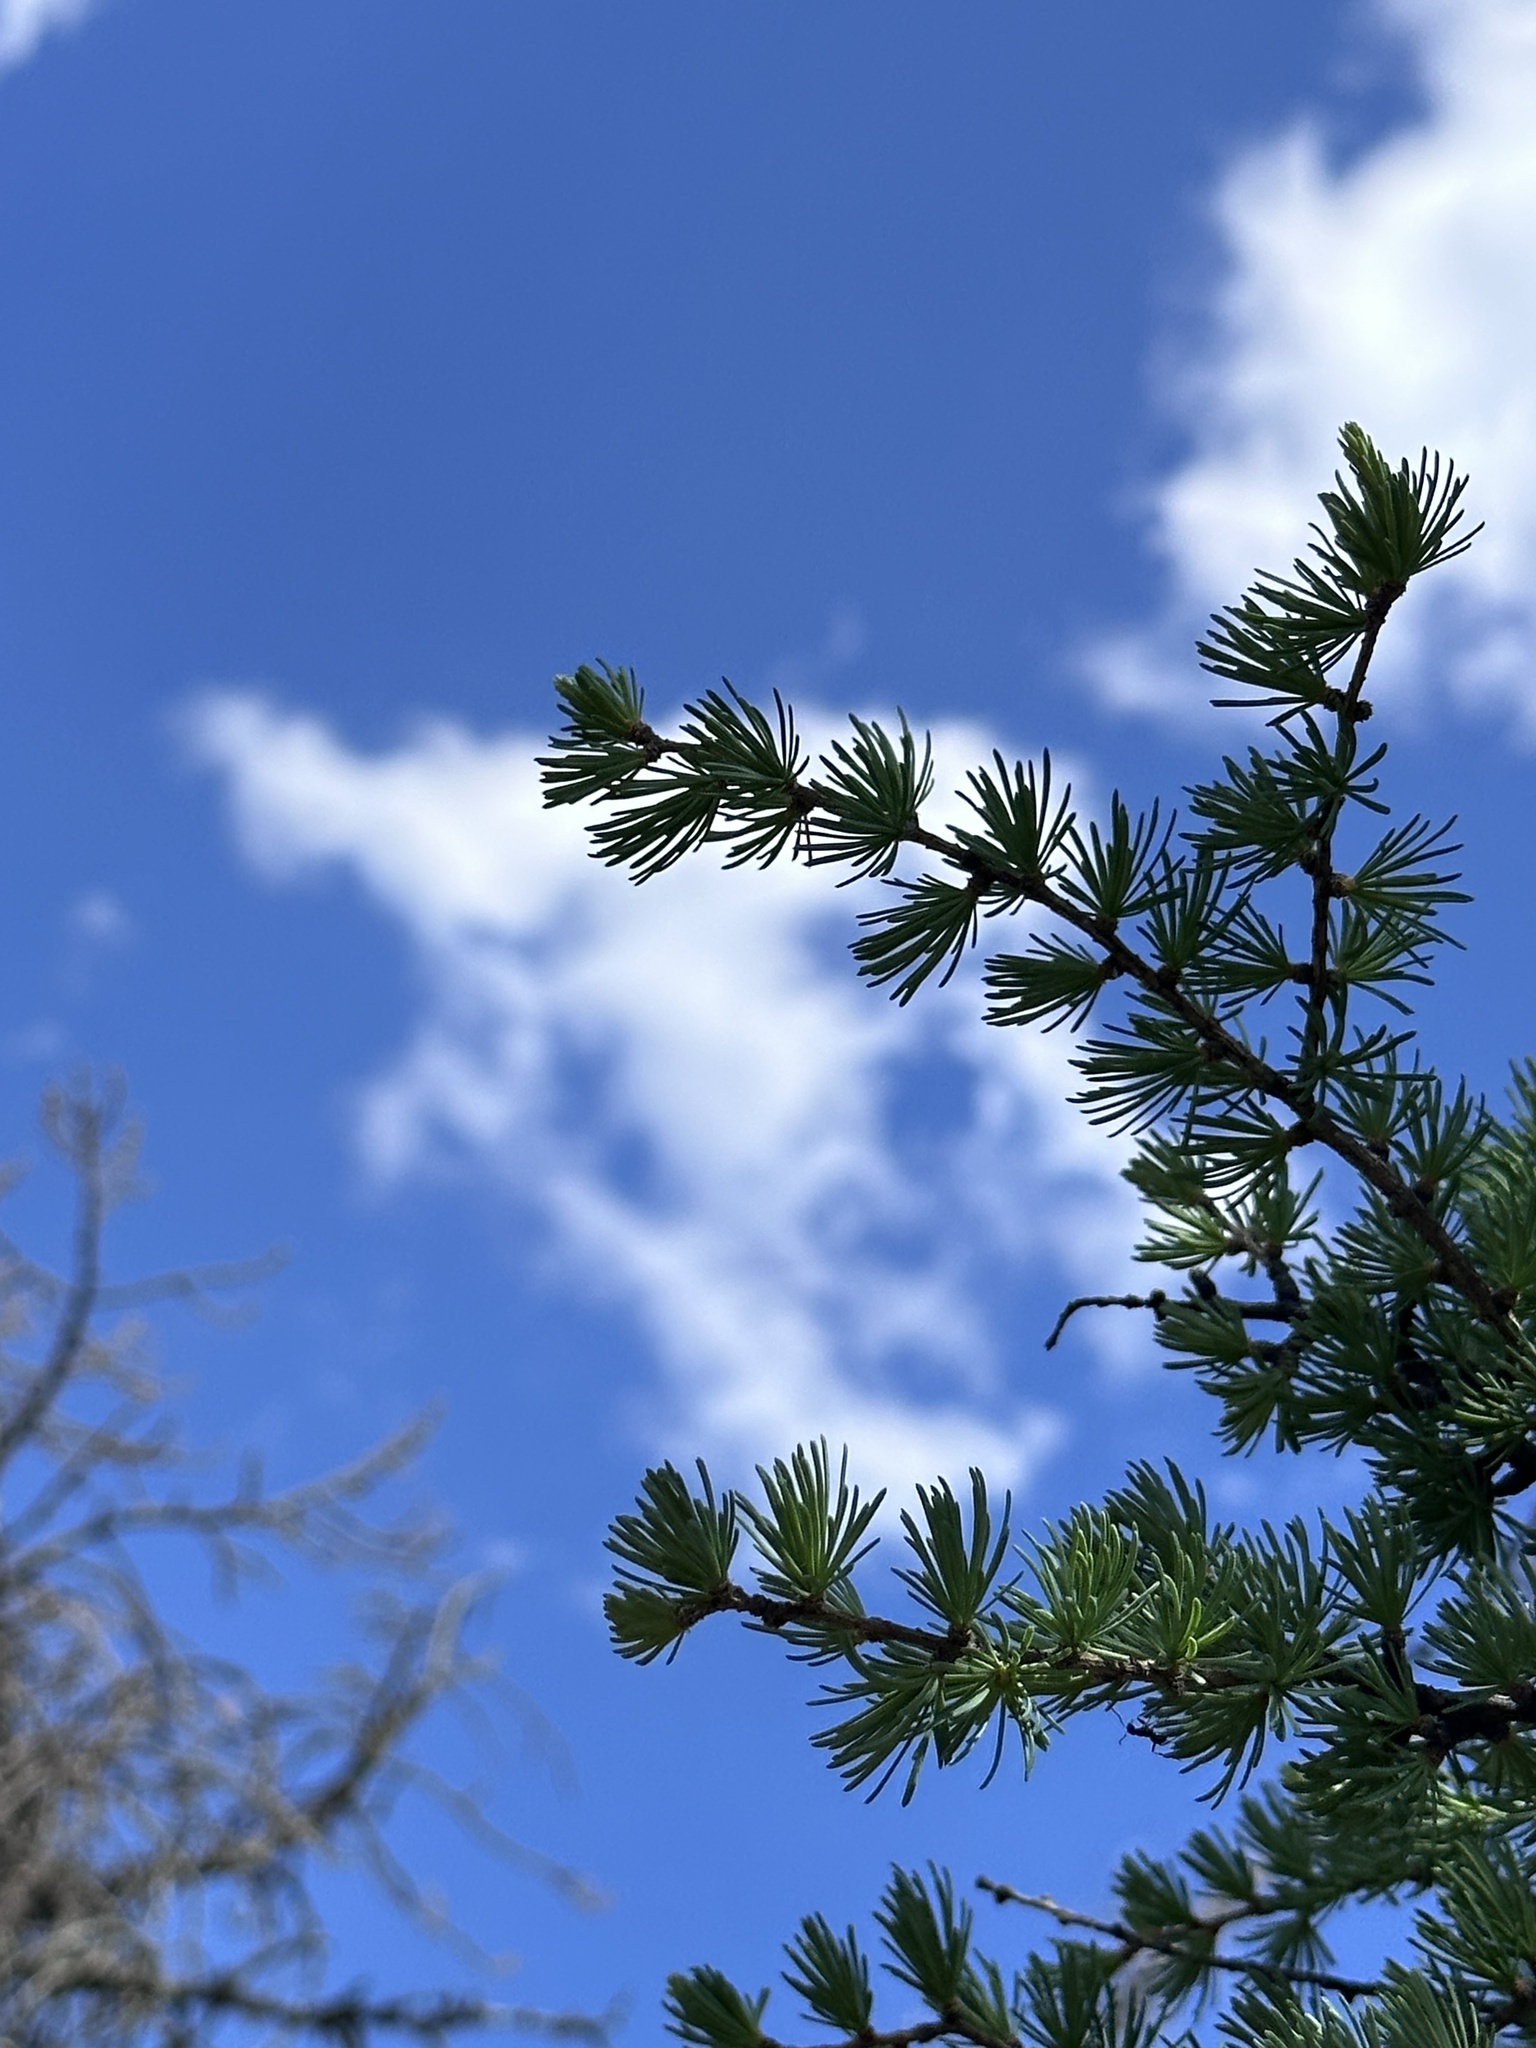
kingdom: Plantae
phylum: Tracheophyta
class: Pinopsida
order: Pinales
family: Pinaceae
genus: Larix
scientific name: Larix laricina
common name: American larch
